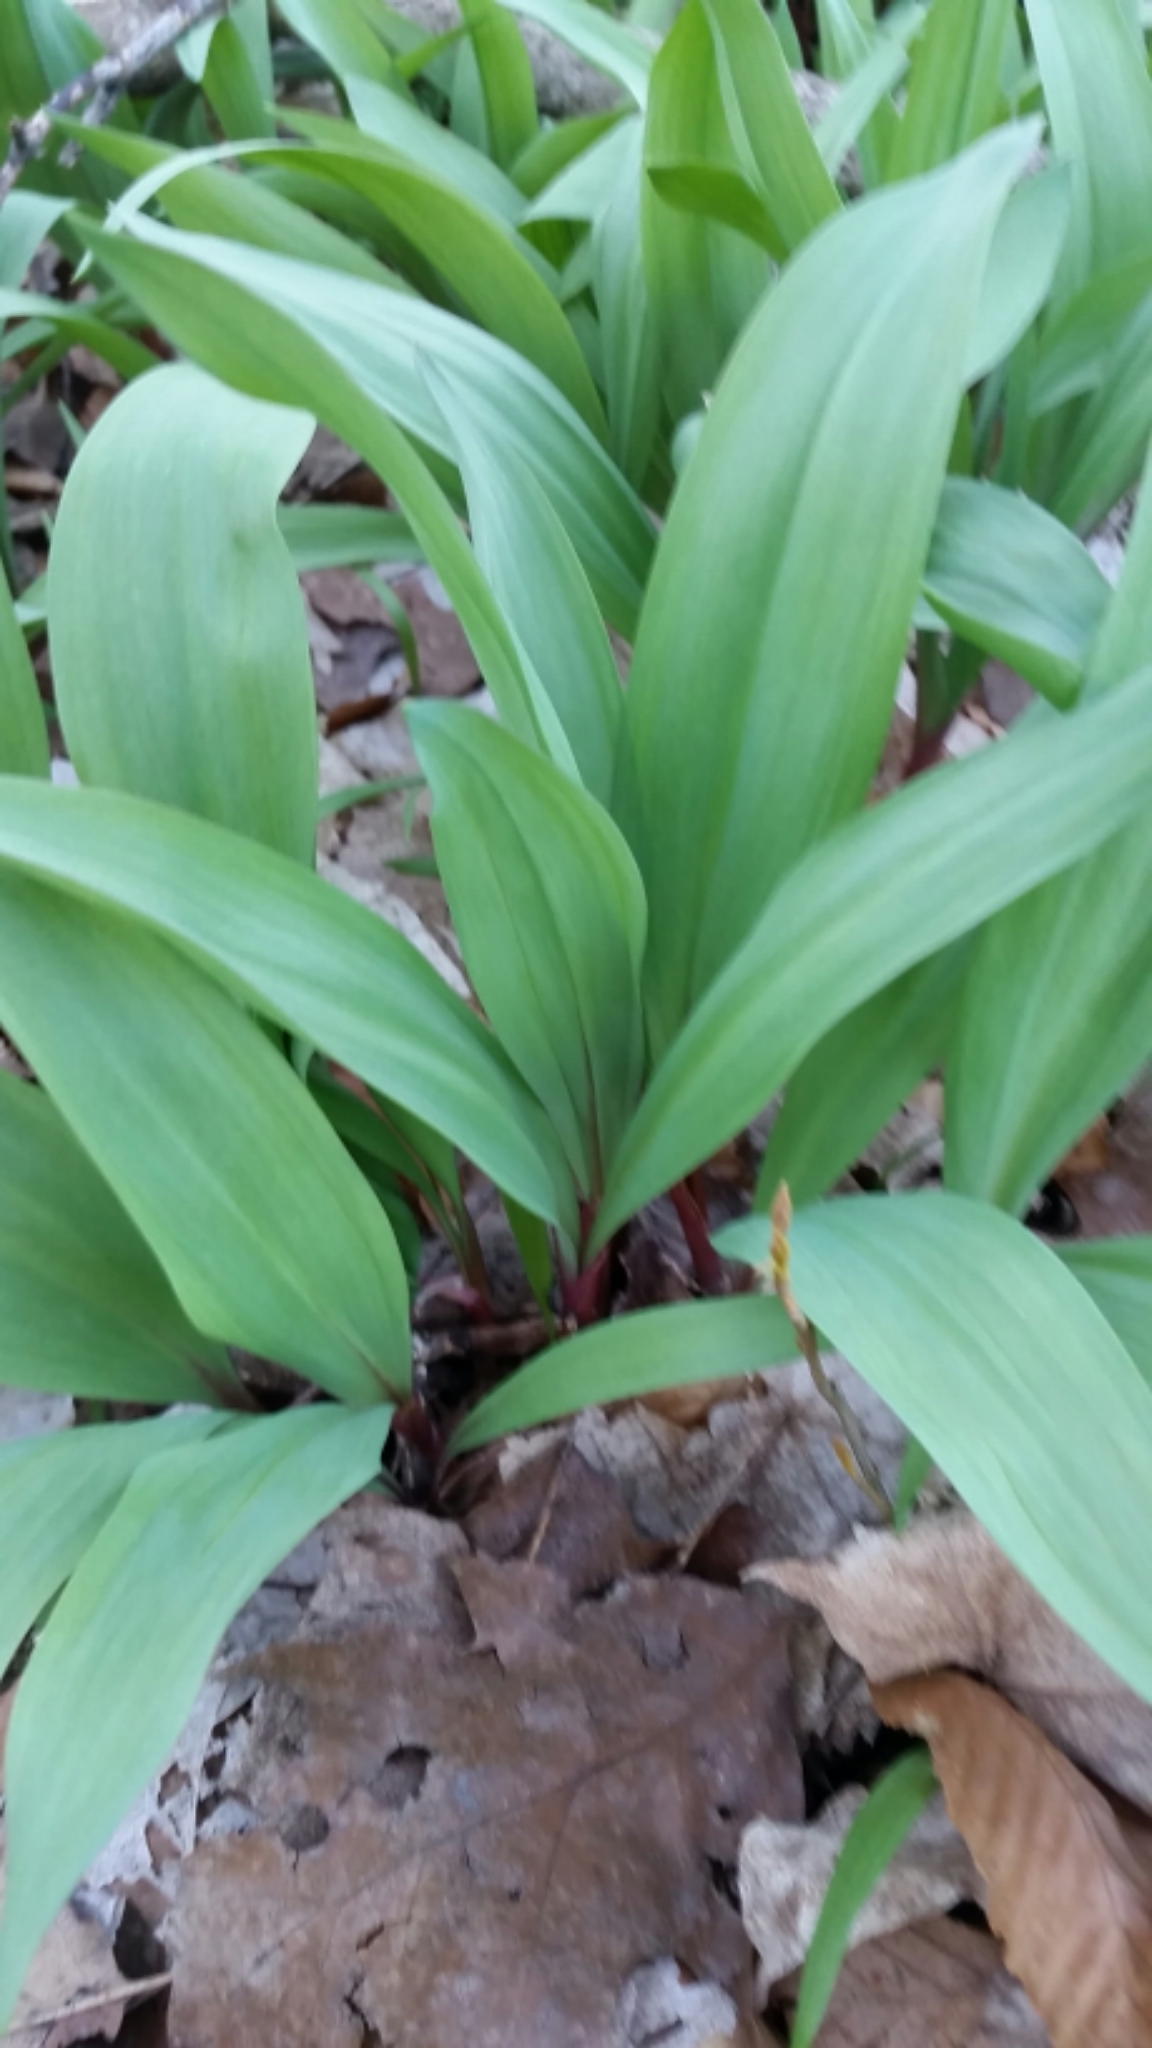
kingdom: Plantae
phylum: Tracheophyta
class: Liliopsida
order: Asparagales
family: Amaryllidaceae
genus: Allium
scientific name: Allium tricoccum
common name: Ramp
